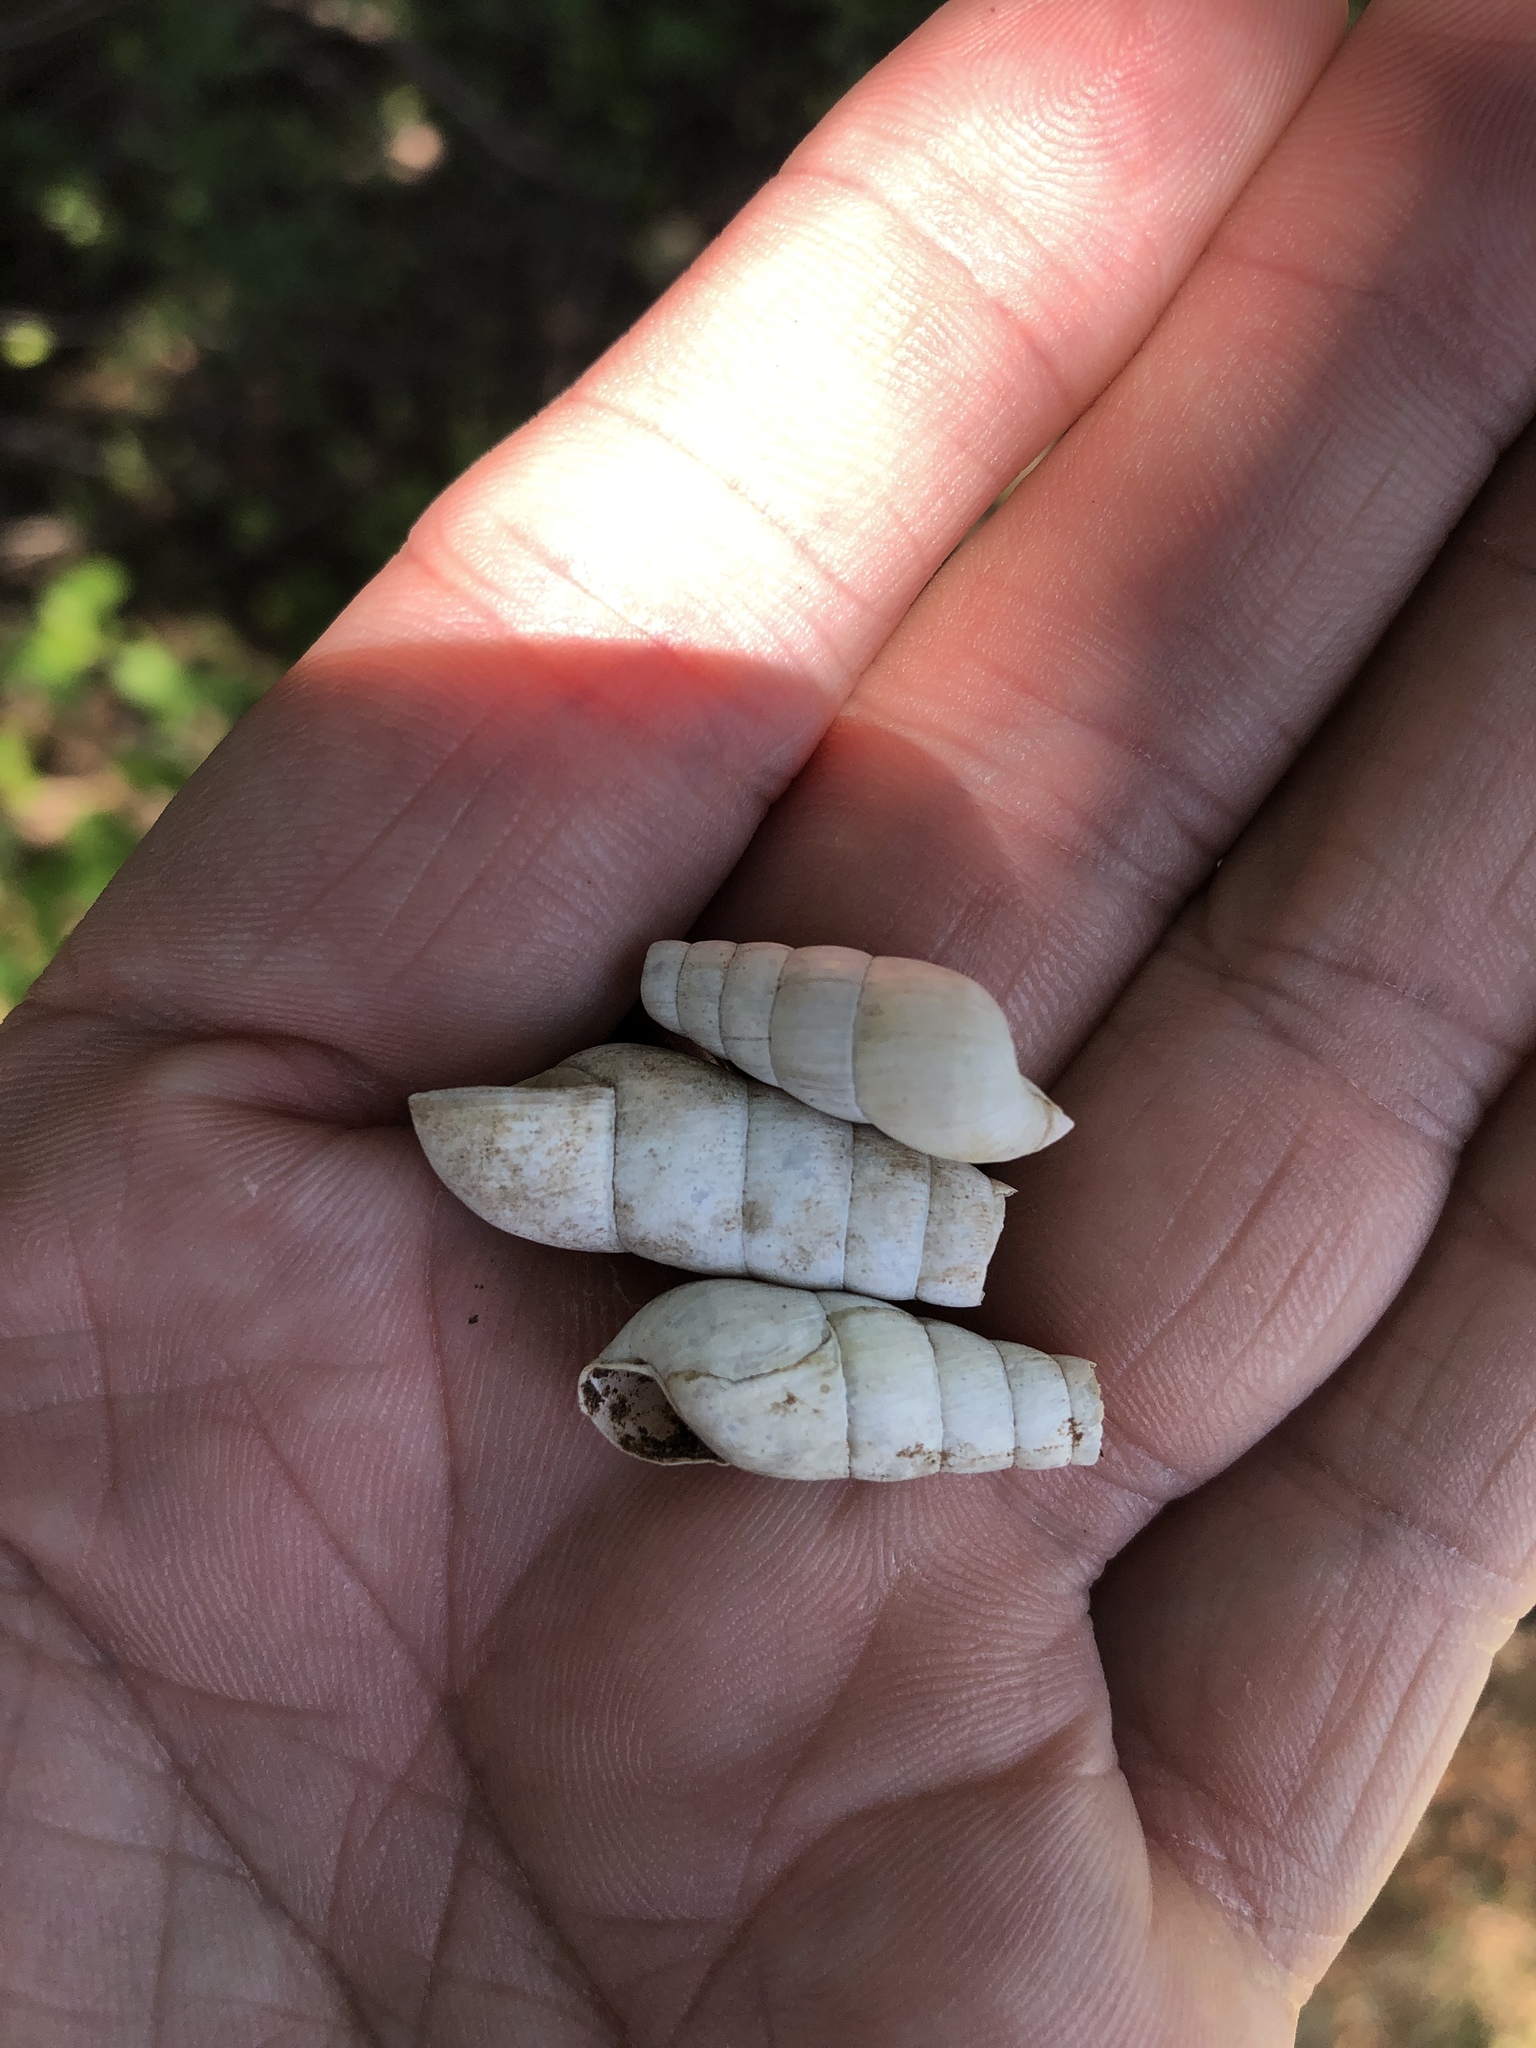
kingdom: Animalia
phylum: Mollusca
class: Gastropoda
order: Stylommatophora
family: Achatinidae
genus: Rumina
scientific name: Rumina decollata
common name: Decollate snail
